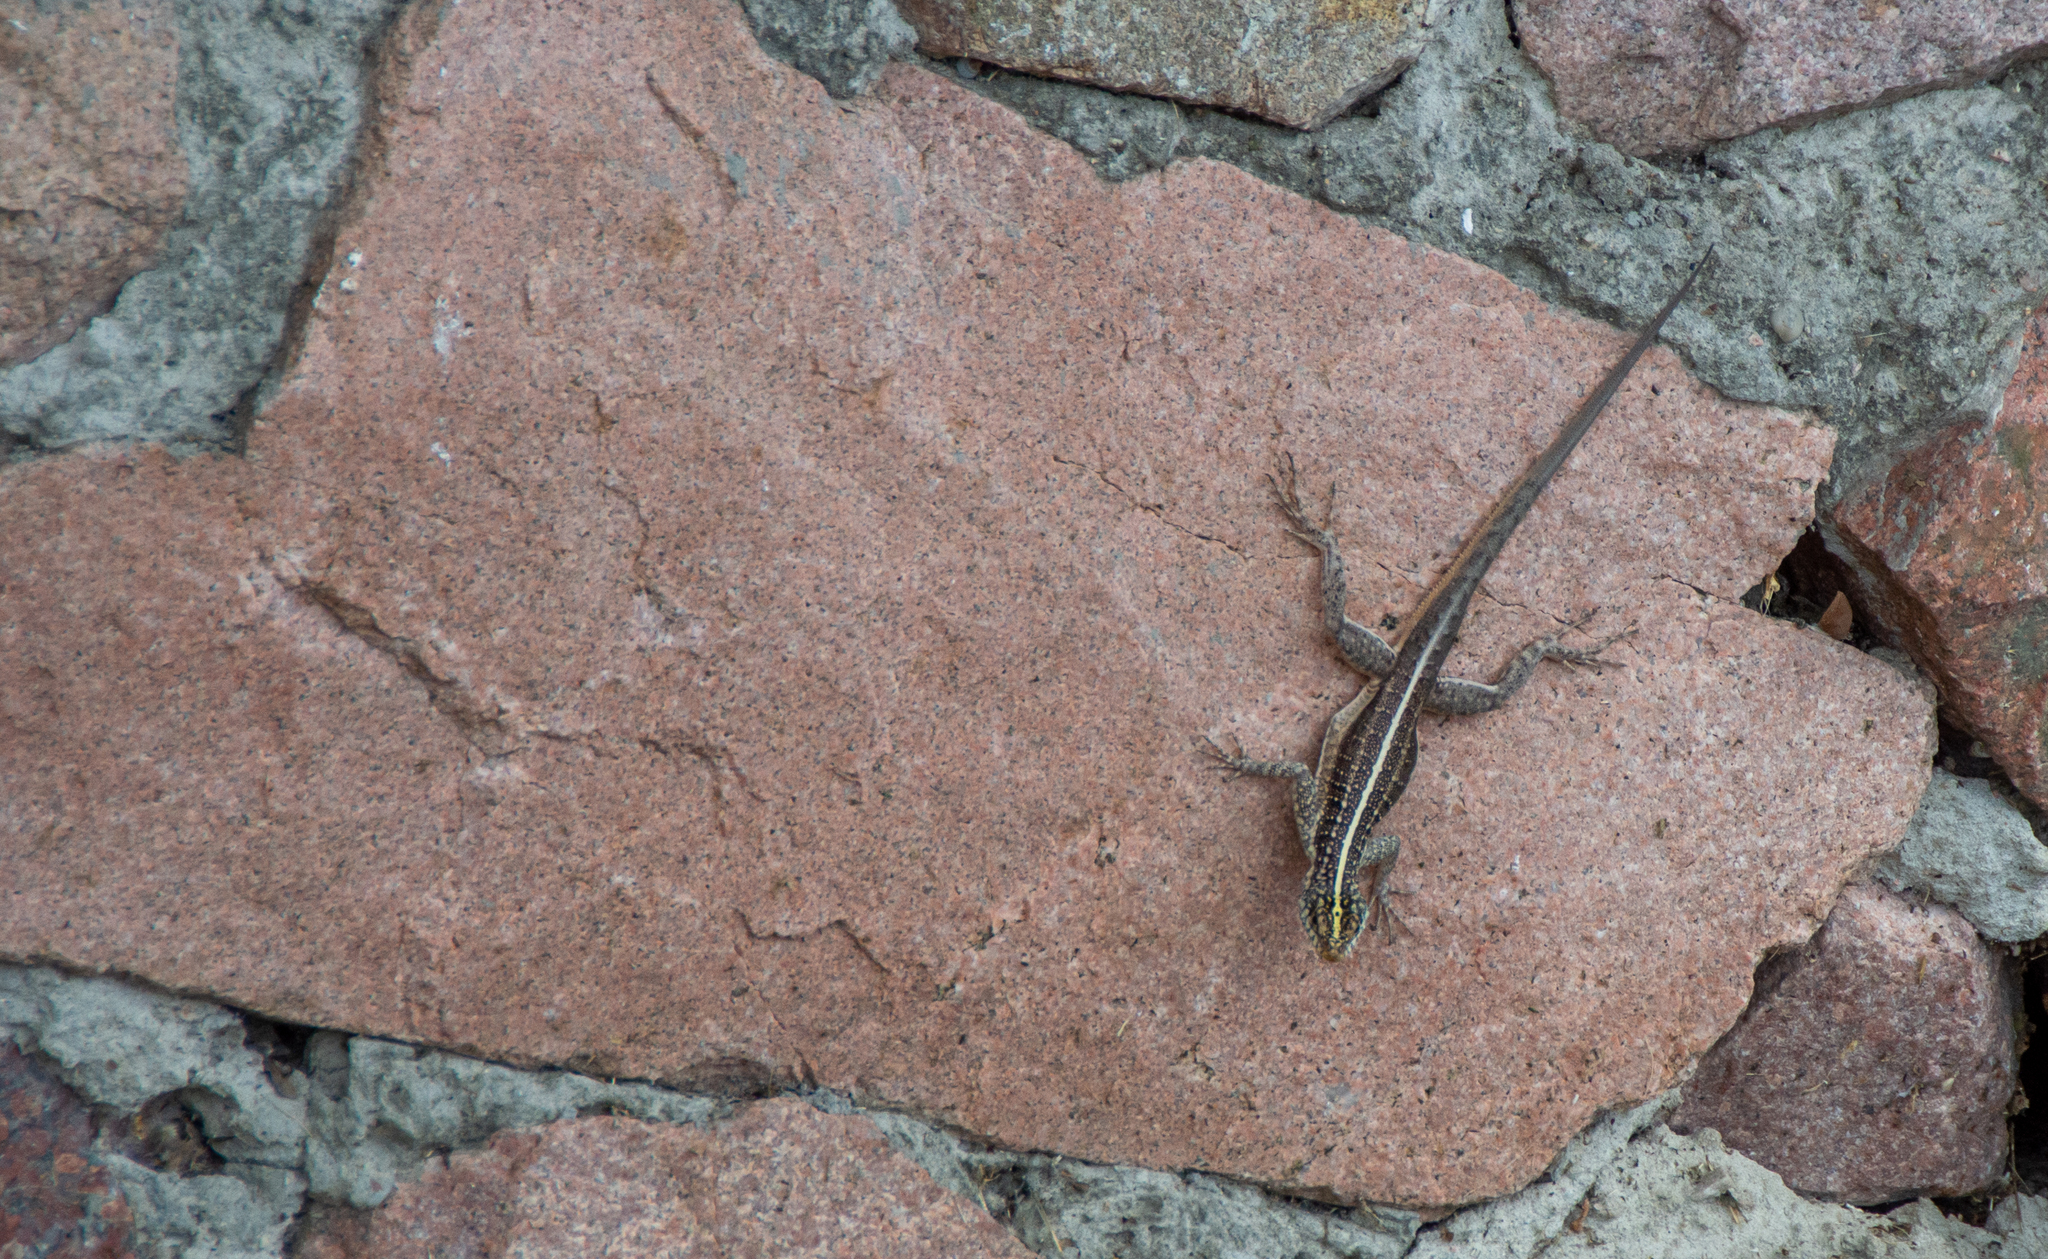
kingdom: Animalia
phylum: Chordata
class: Squamata
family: Tropiduridae
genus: Tropidurus
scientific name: Tropidurus semitaeniatus
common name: Striped lava lizard
